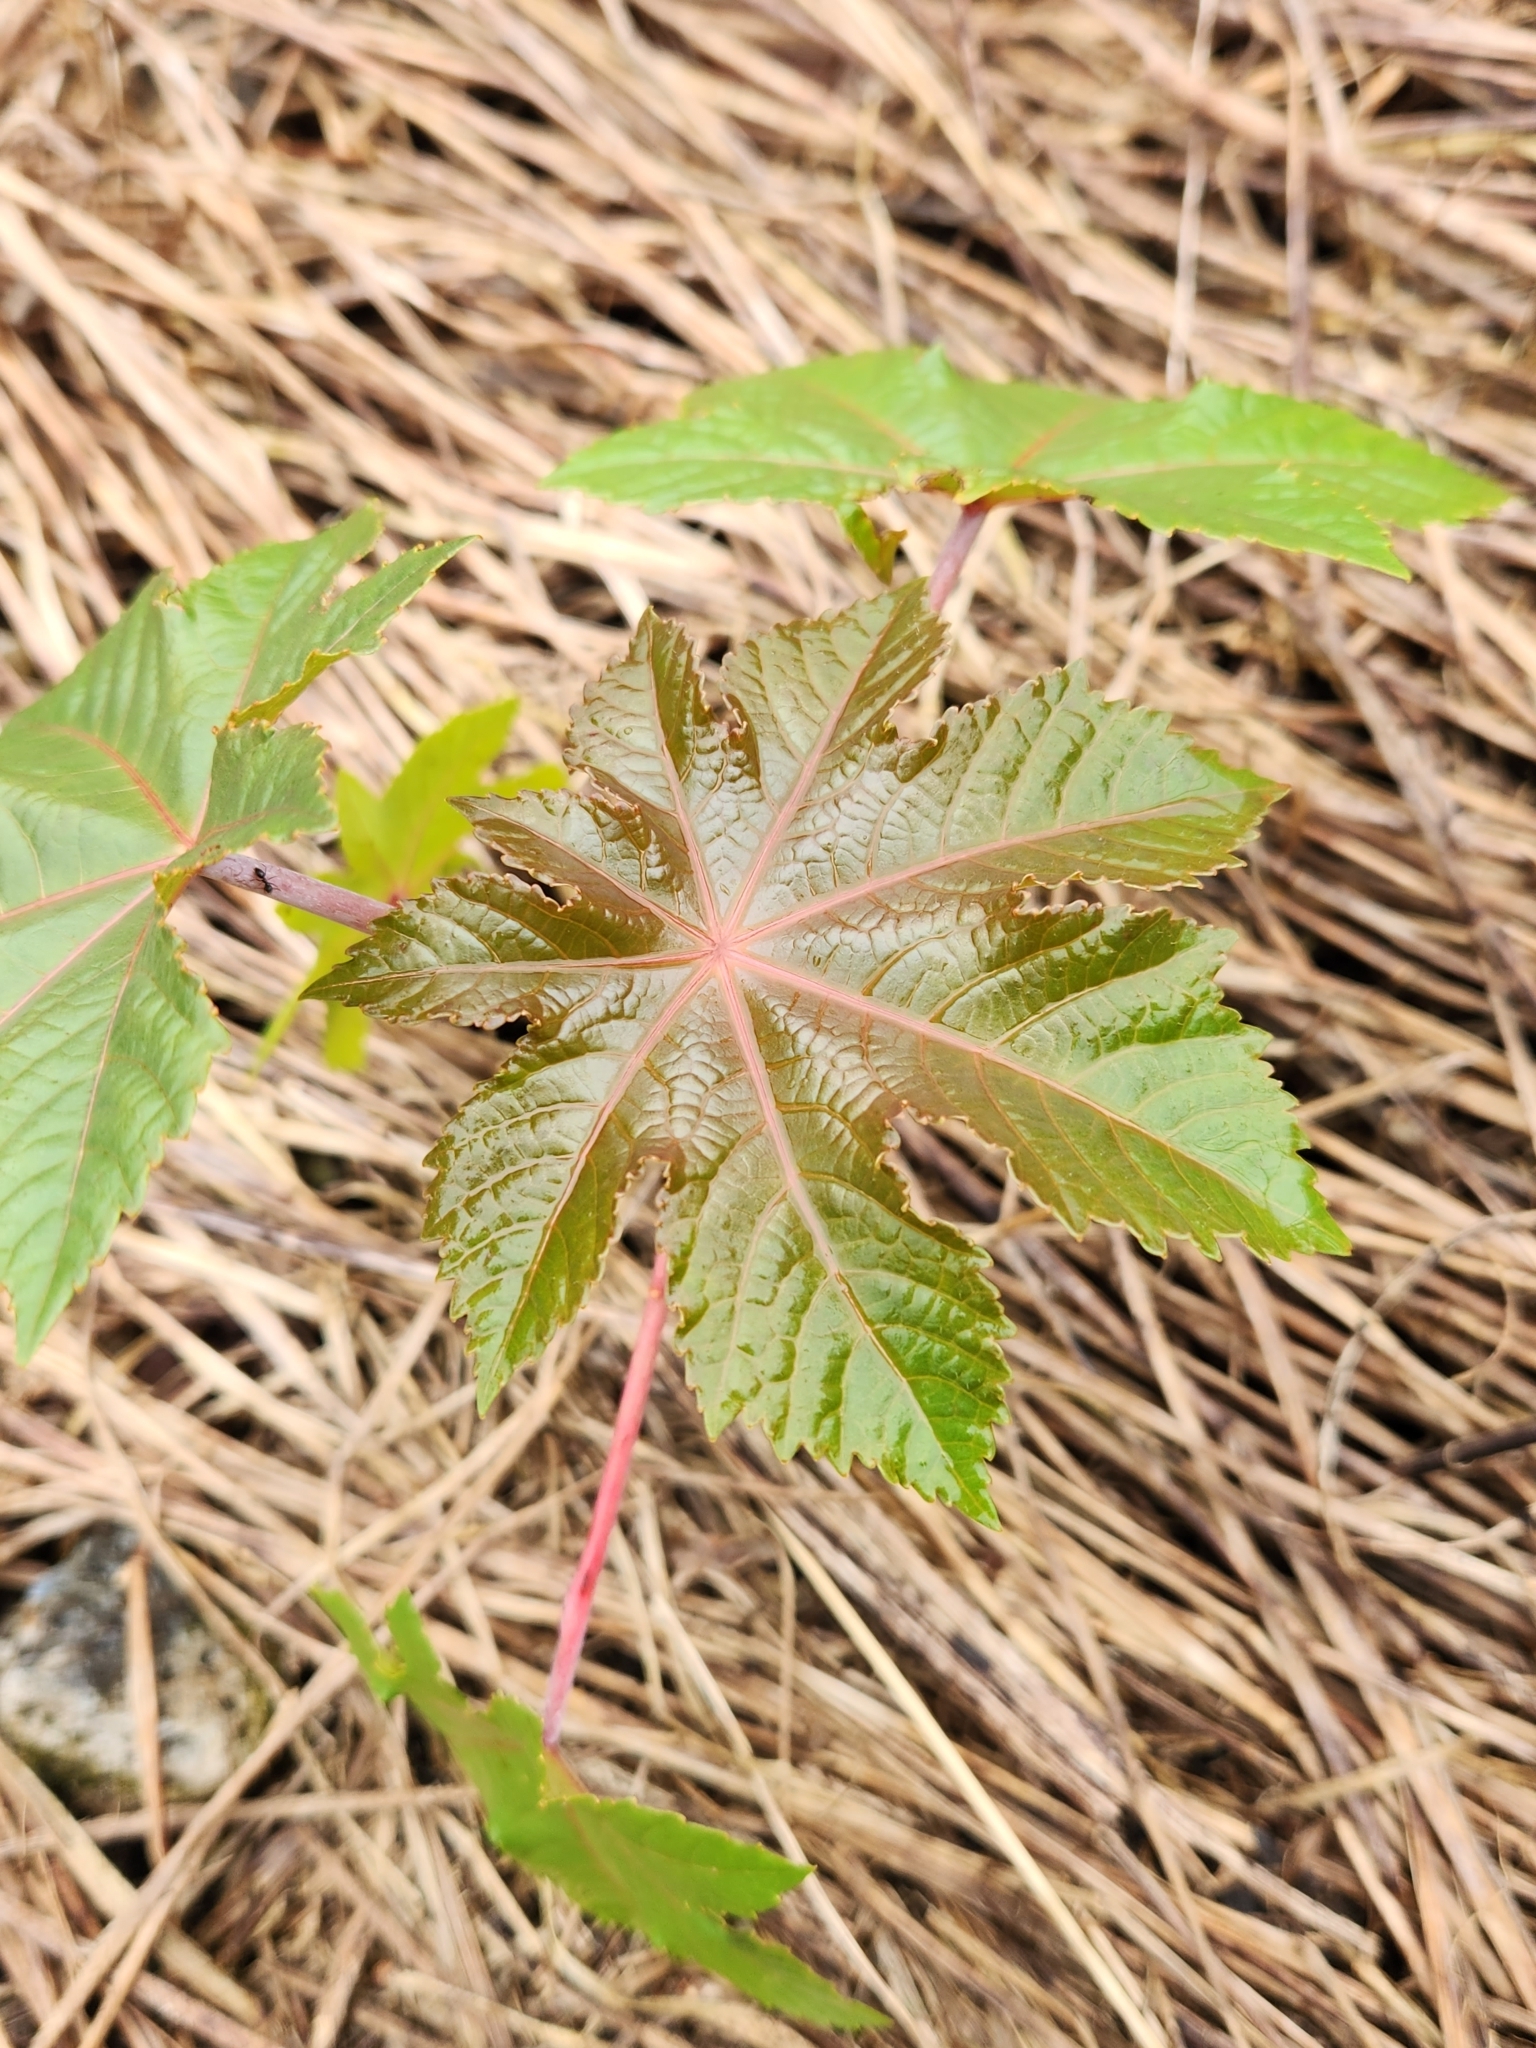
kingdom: Plantae
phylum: Tracheophyta
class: Magnoliopsida
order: Malpighiales
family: Euphorbiaceae
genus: Ricinus
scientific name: Ricinus communis
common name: Castor-oil-plant
